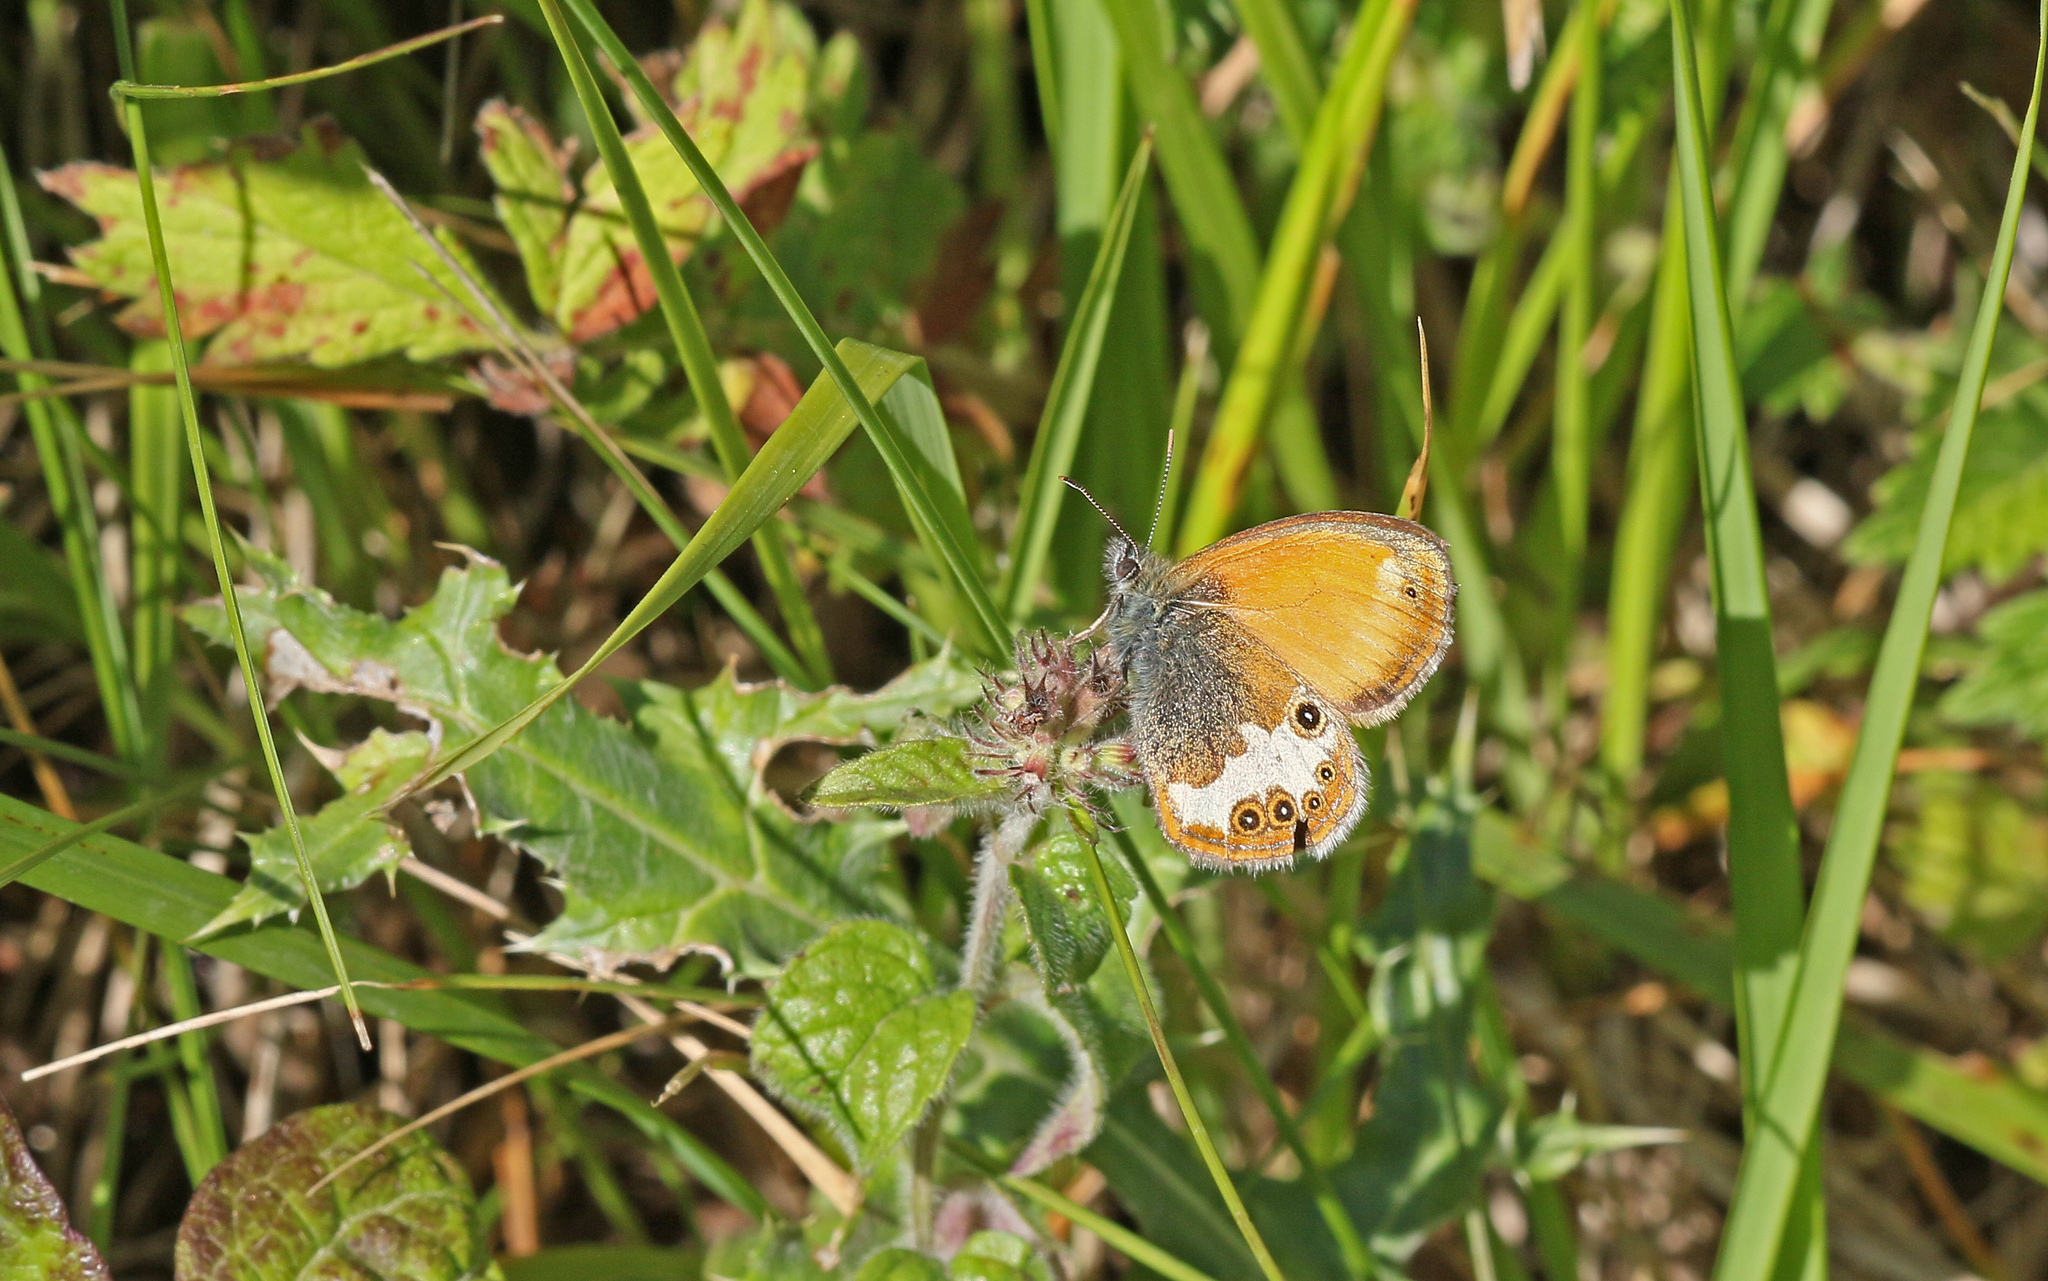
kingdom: Animalia
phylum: Arthropoda
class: Insecta
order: Lepidoptera
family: Nymphalidae
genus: Coenonympha
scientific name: Coenonympha arcania
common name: Pearly heath
